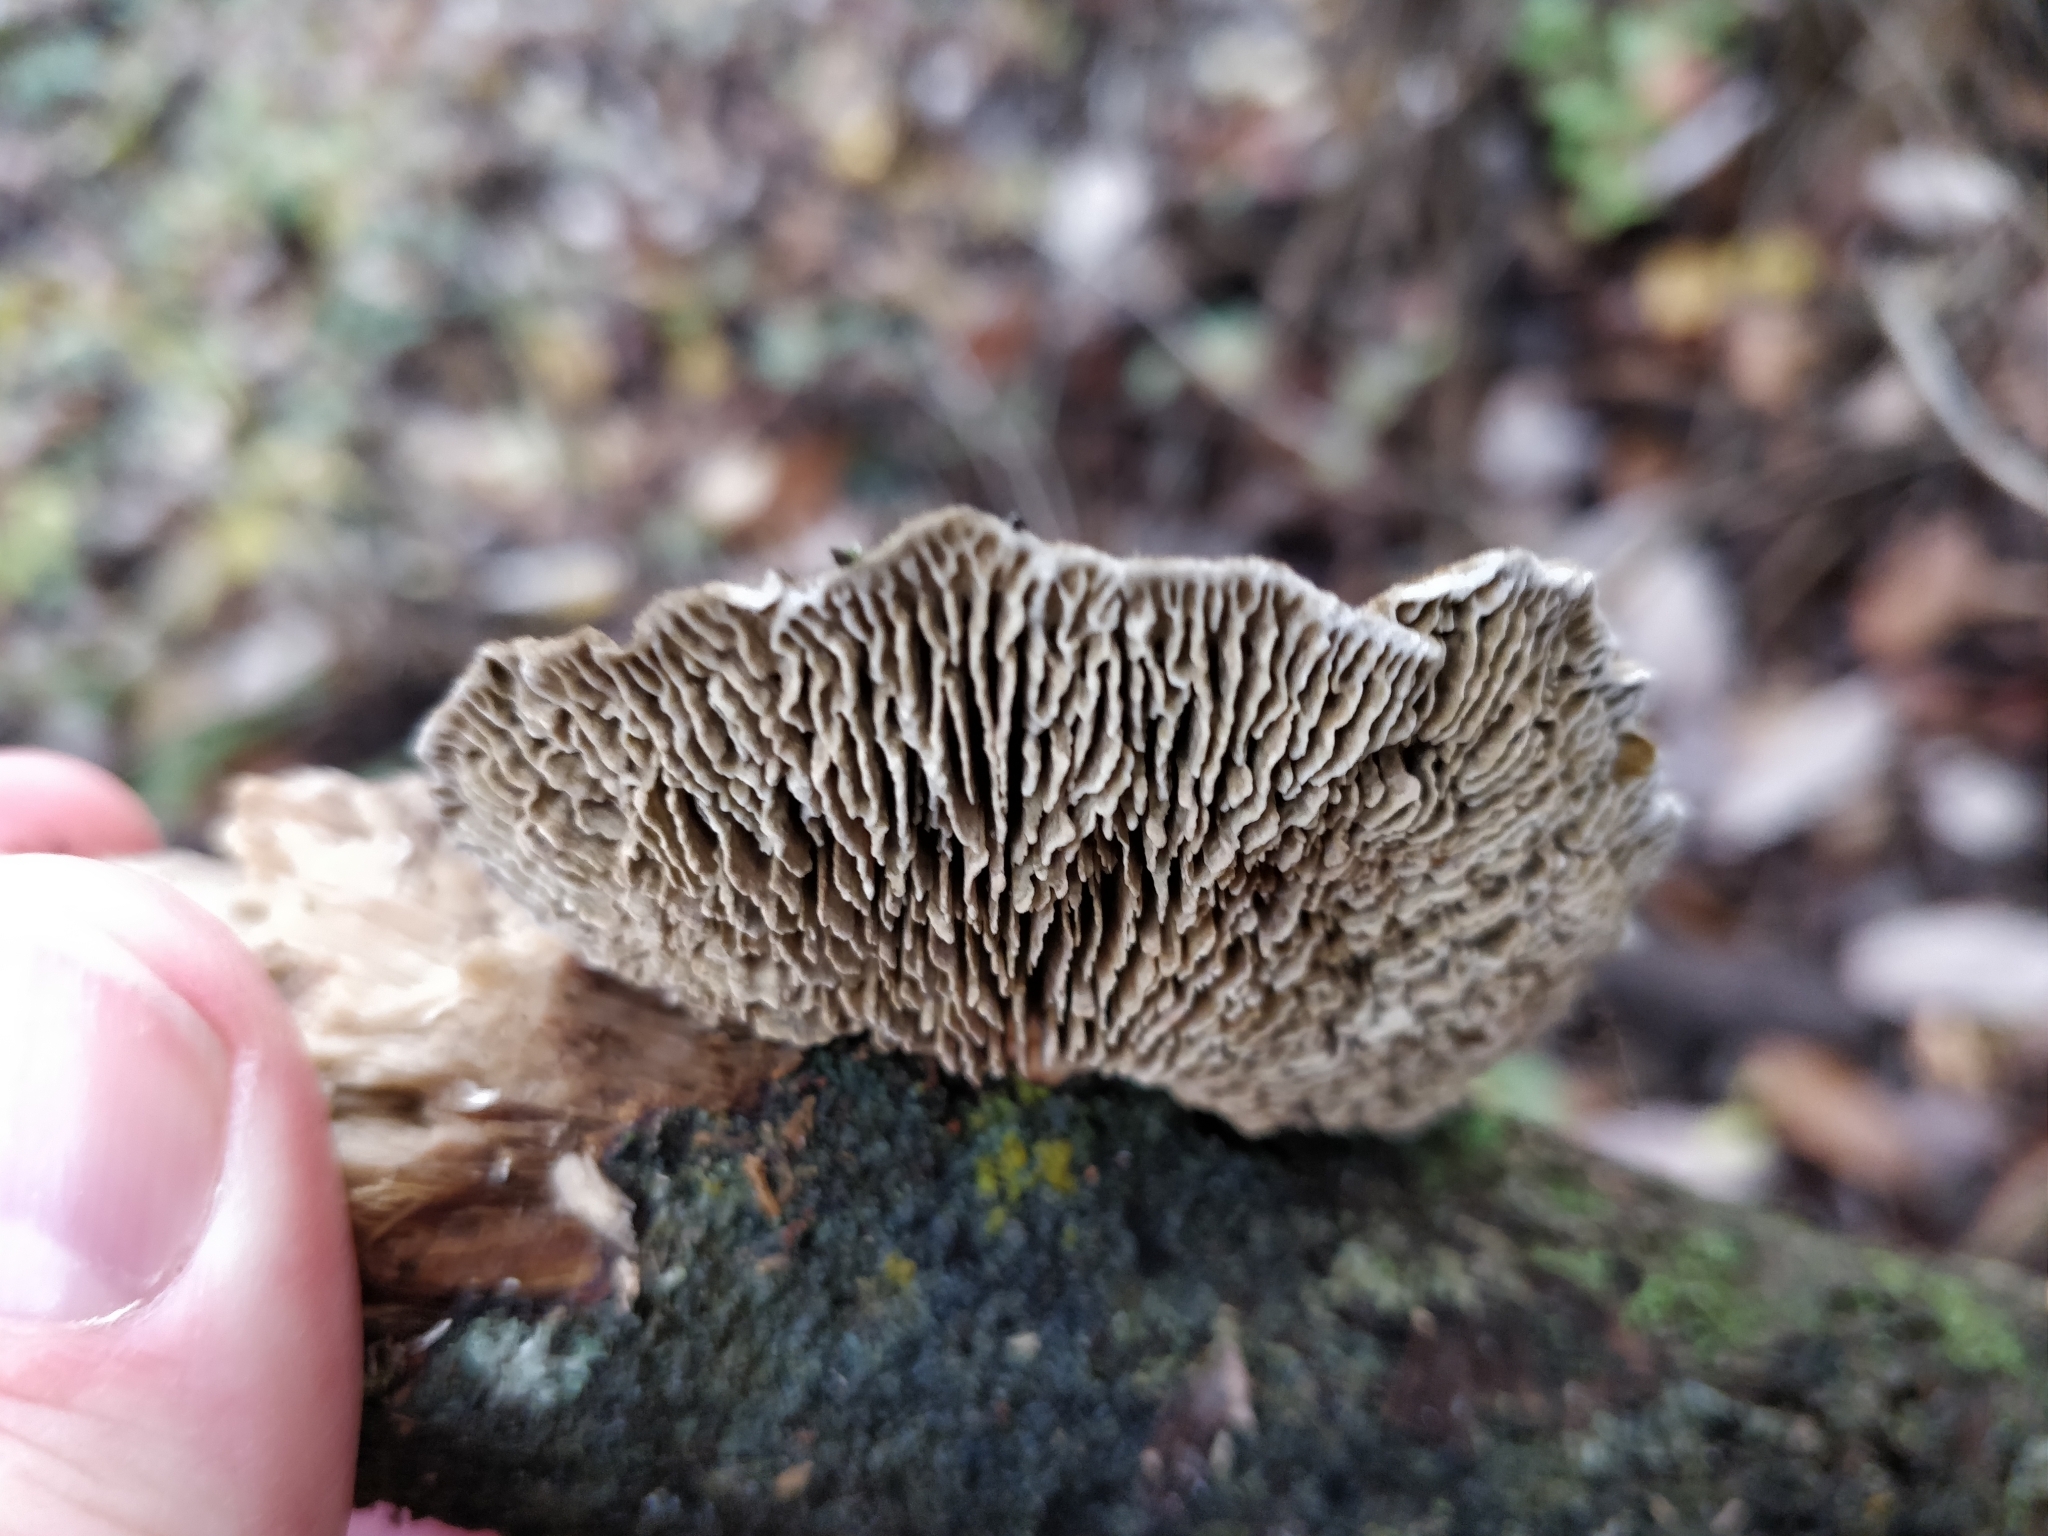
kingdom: Fungi
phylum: Basidiomycota
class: Agaricomycetes
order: Polyporales
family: Polyporaceae
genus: Daedaleopsis
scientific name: Daedaleopsis confragosa
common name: Blushing bracket
